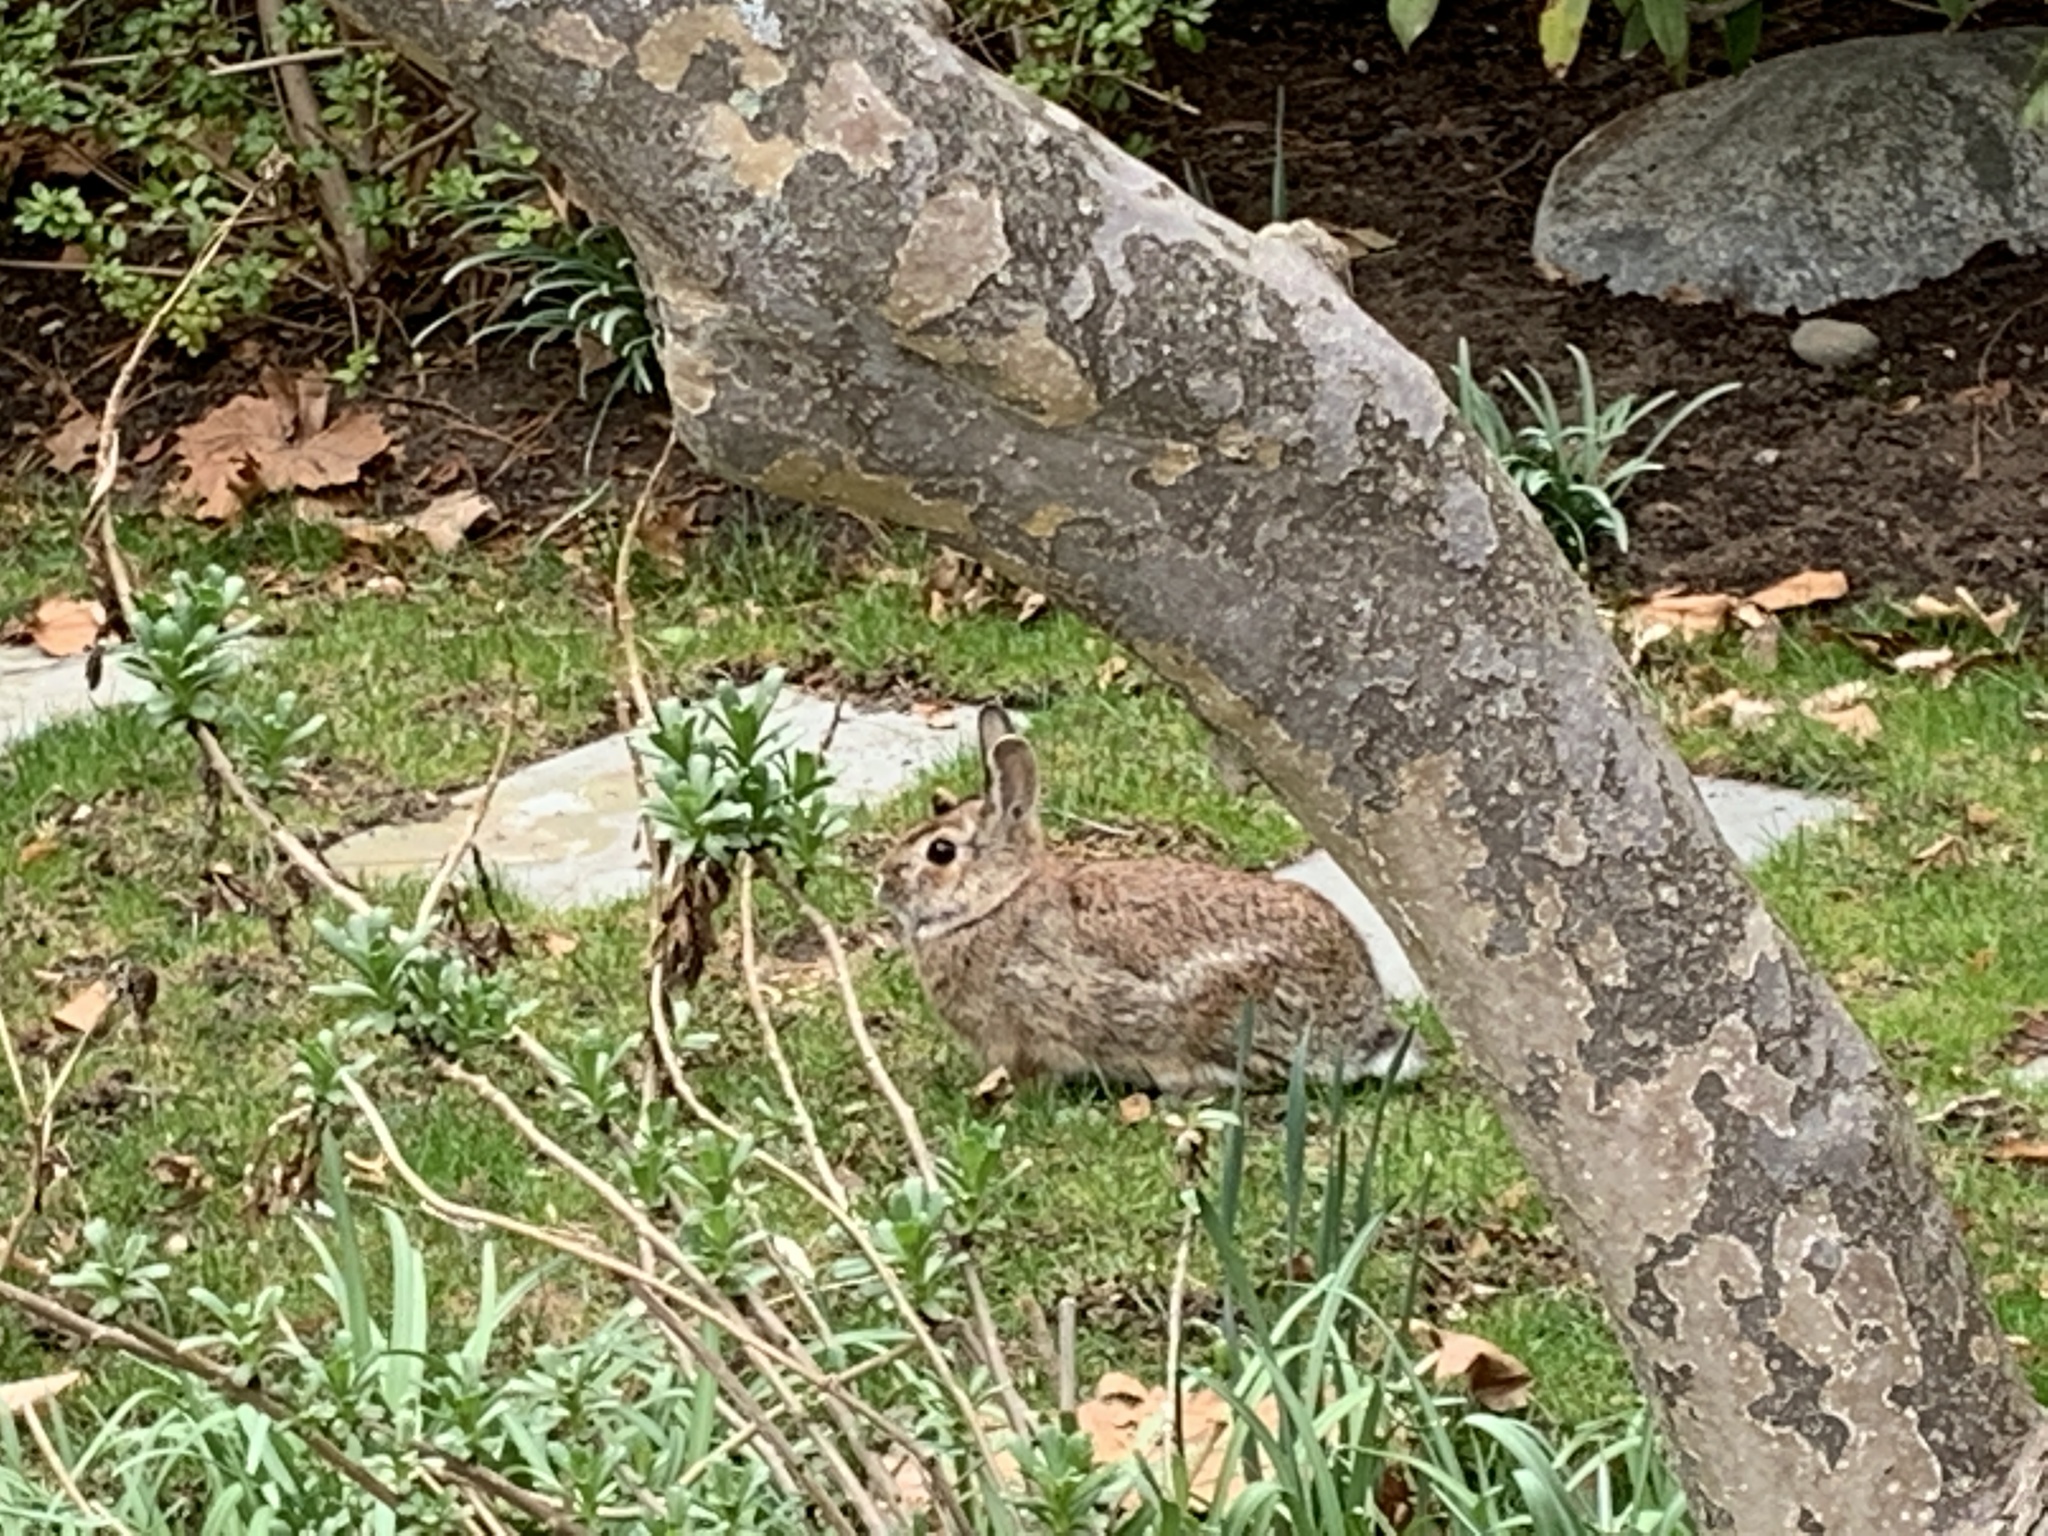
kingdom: Animalia
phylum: Chordata
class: Mammalia
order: Lagomorpha
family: Leporidae
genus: Sylvilagus
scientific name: Sylvilagus floridanus
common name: Eastern cottontail
